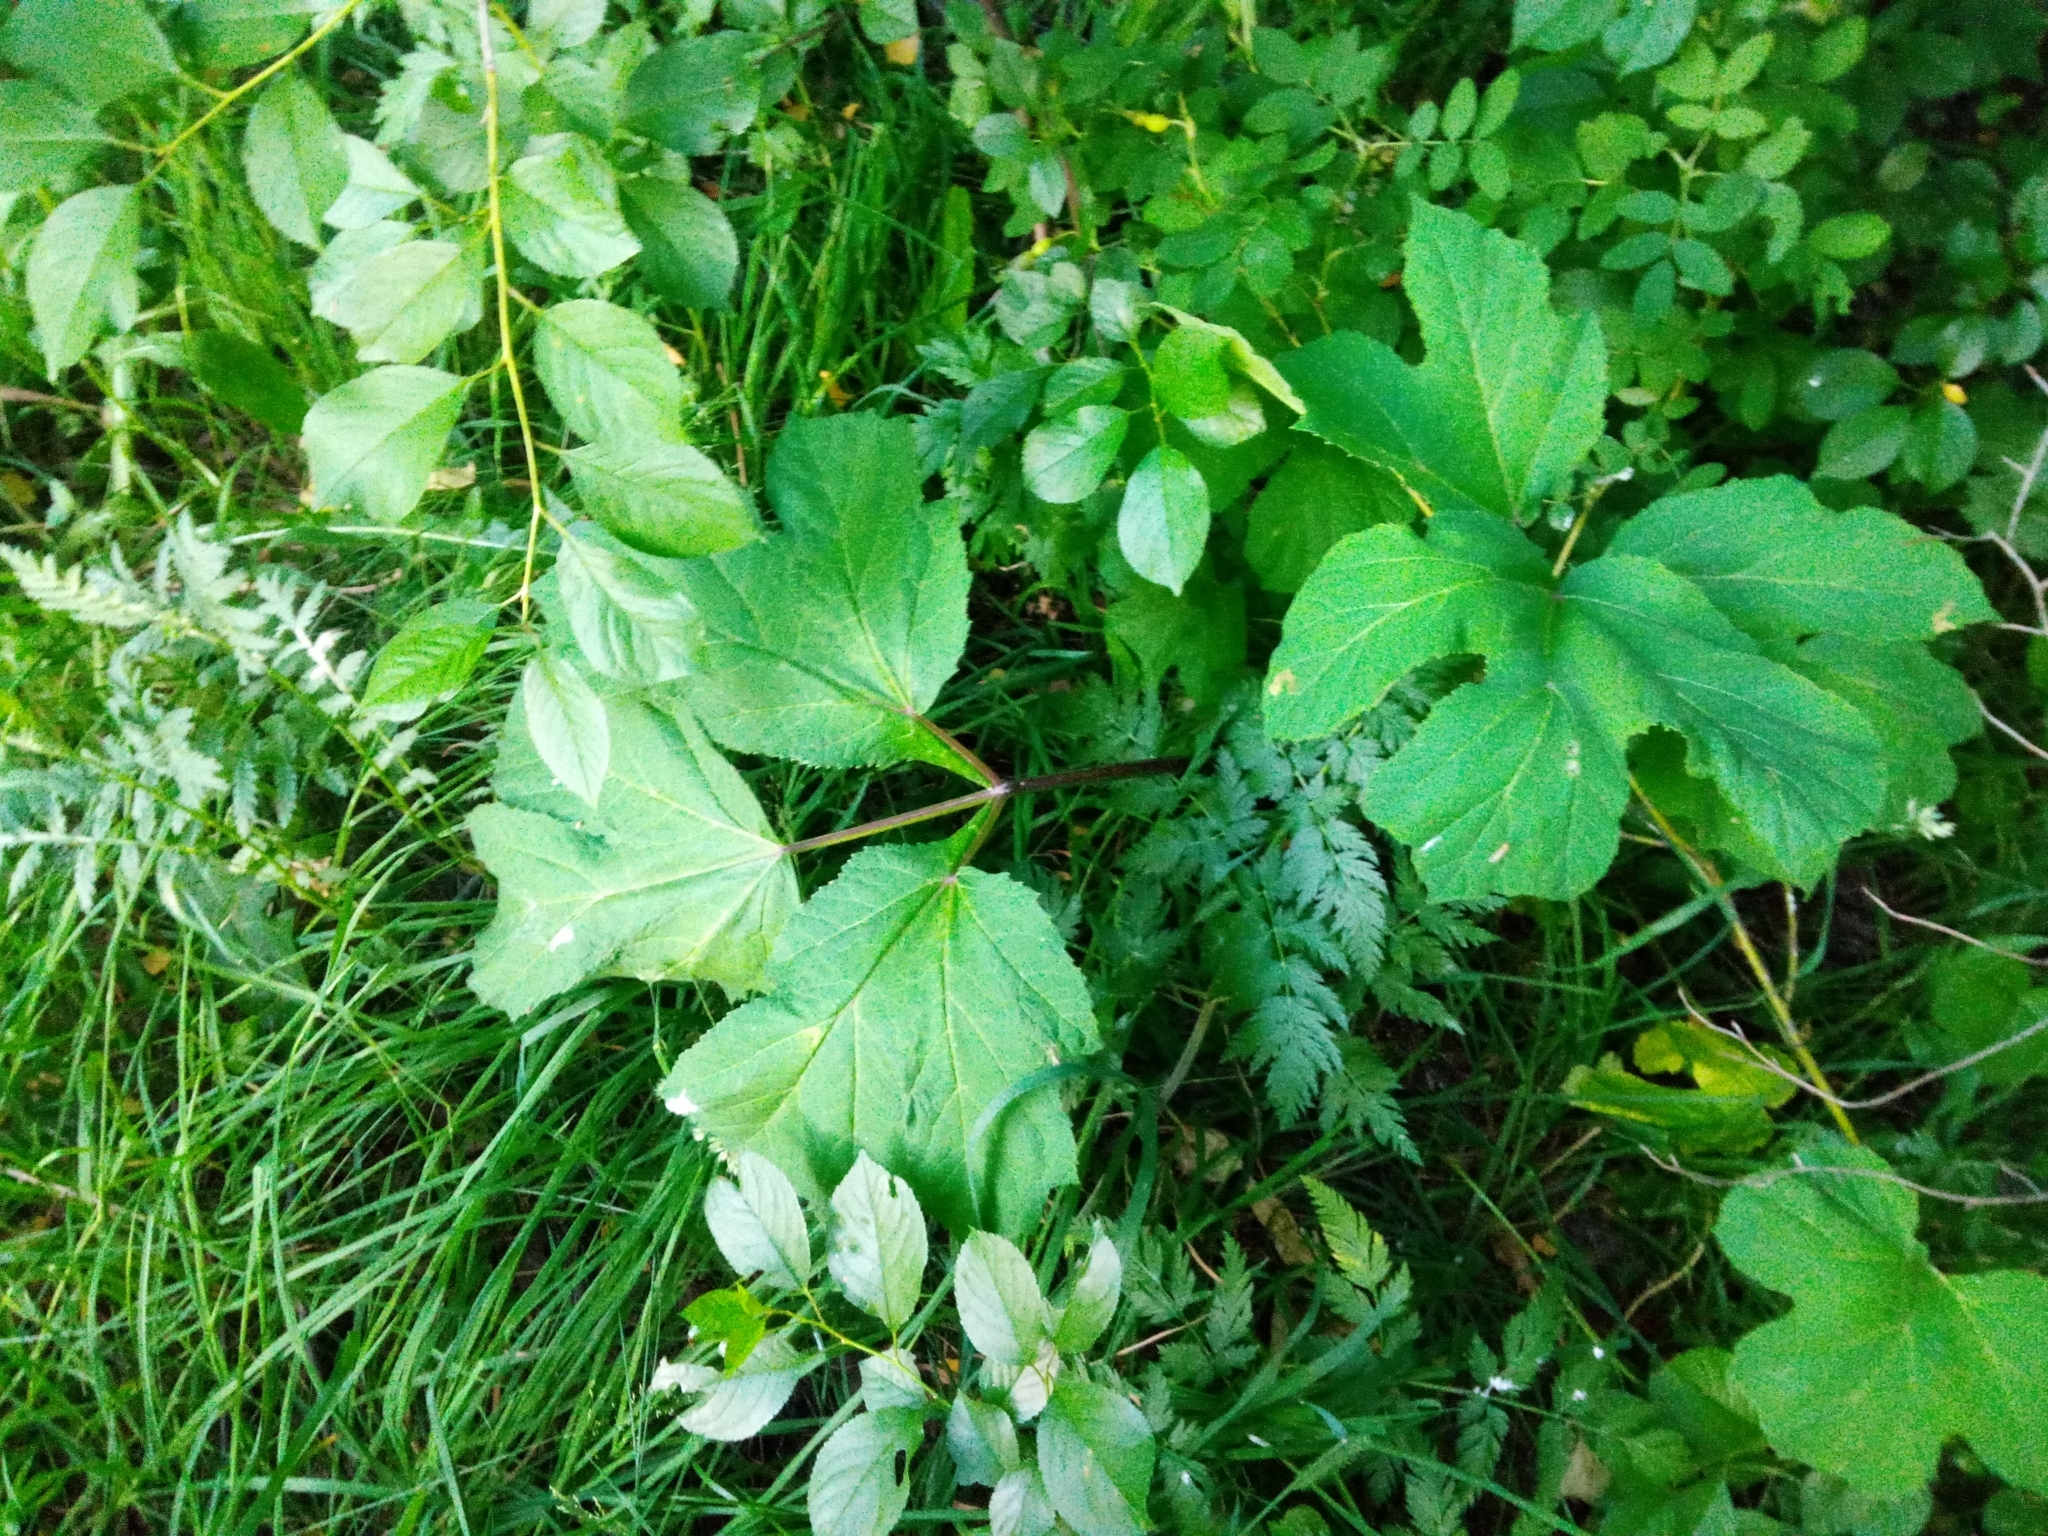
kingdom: Plantae
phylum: Tracheophyta
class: Magnoliopsida
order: Apiales
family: Apiaceae
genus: Heracleum
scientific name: Heracleum sosnowskyi
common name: Sosnowsky's hogweed
